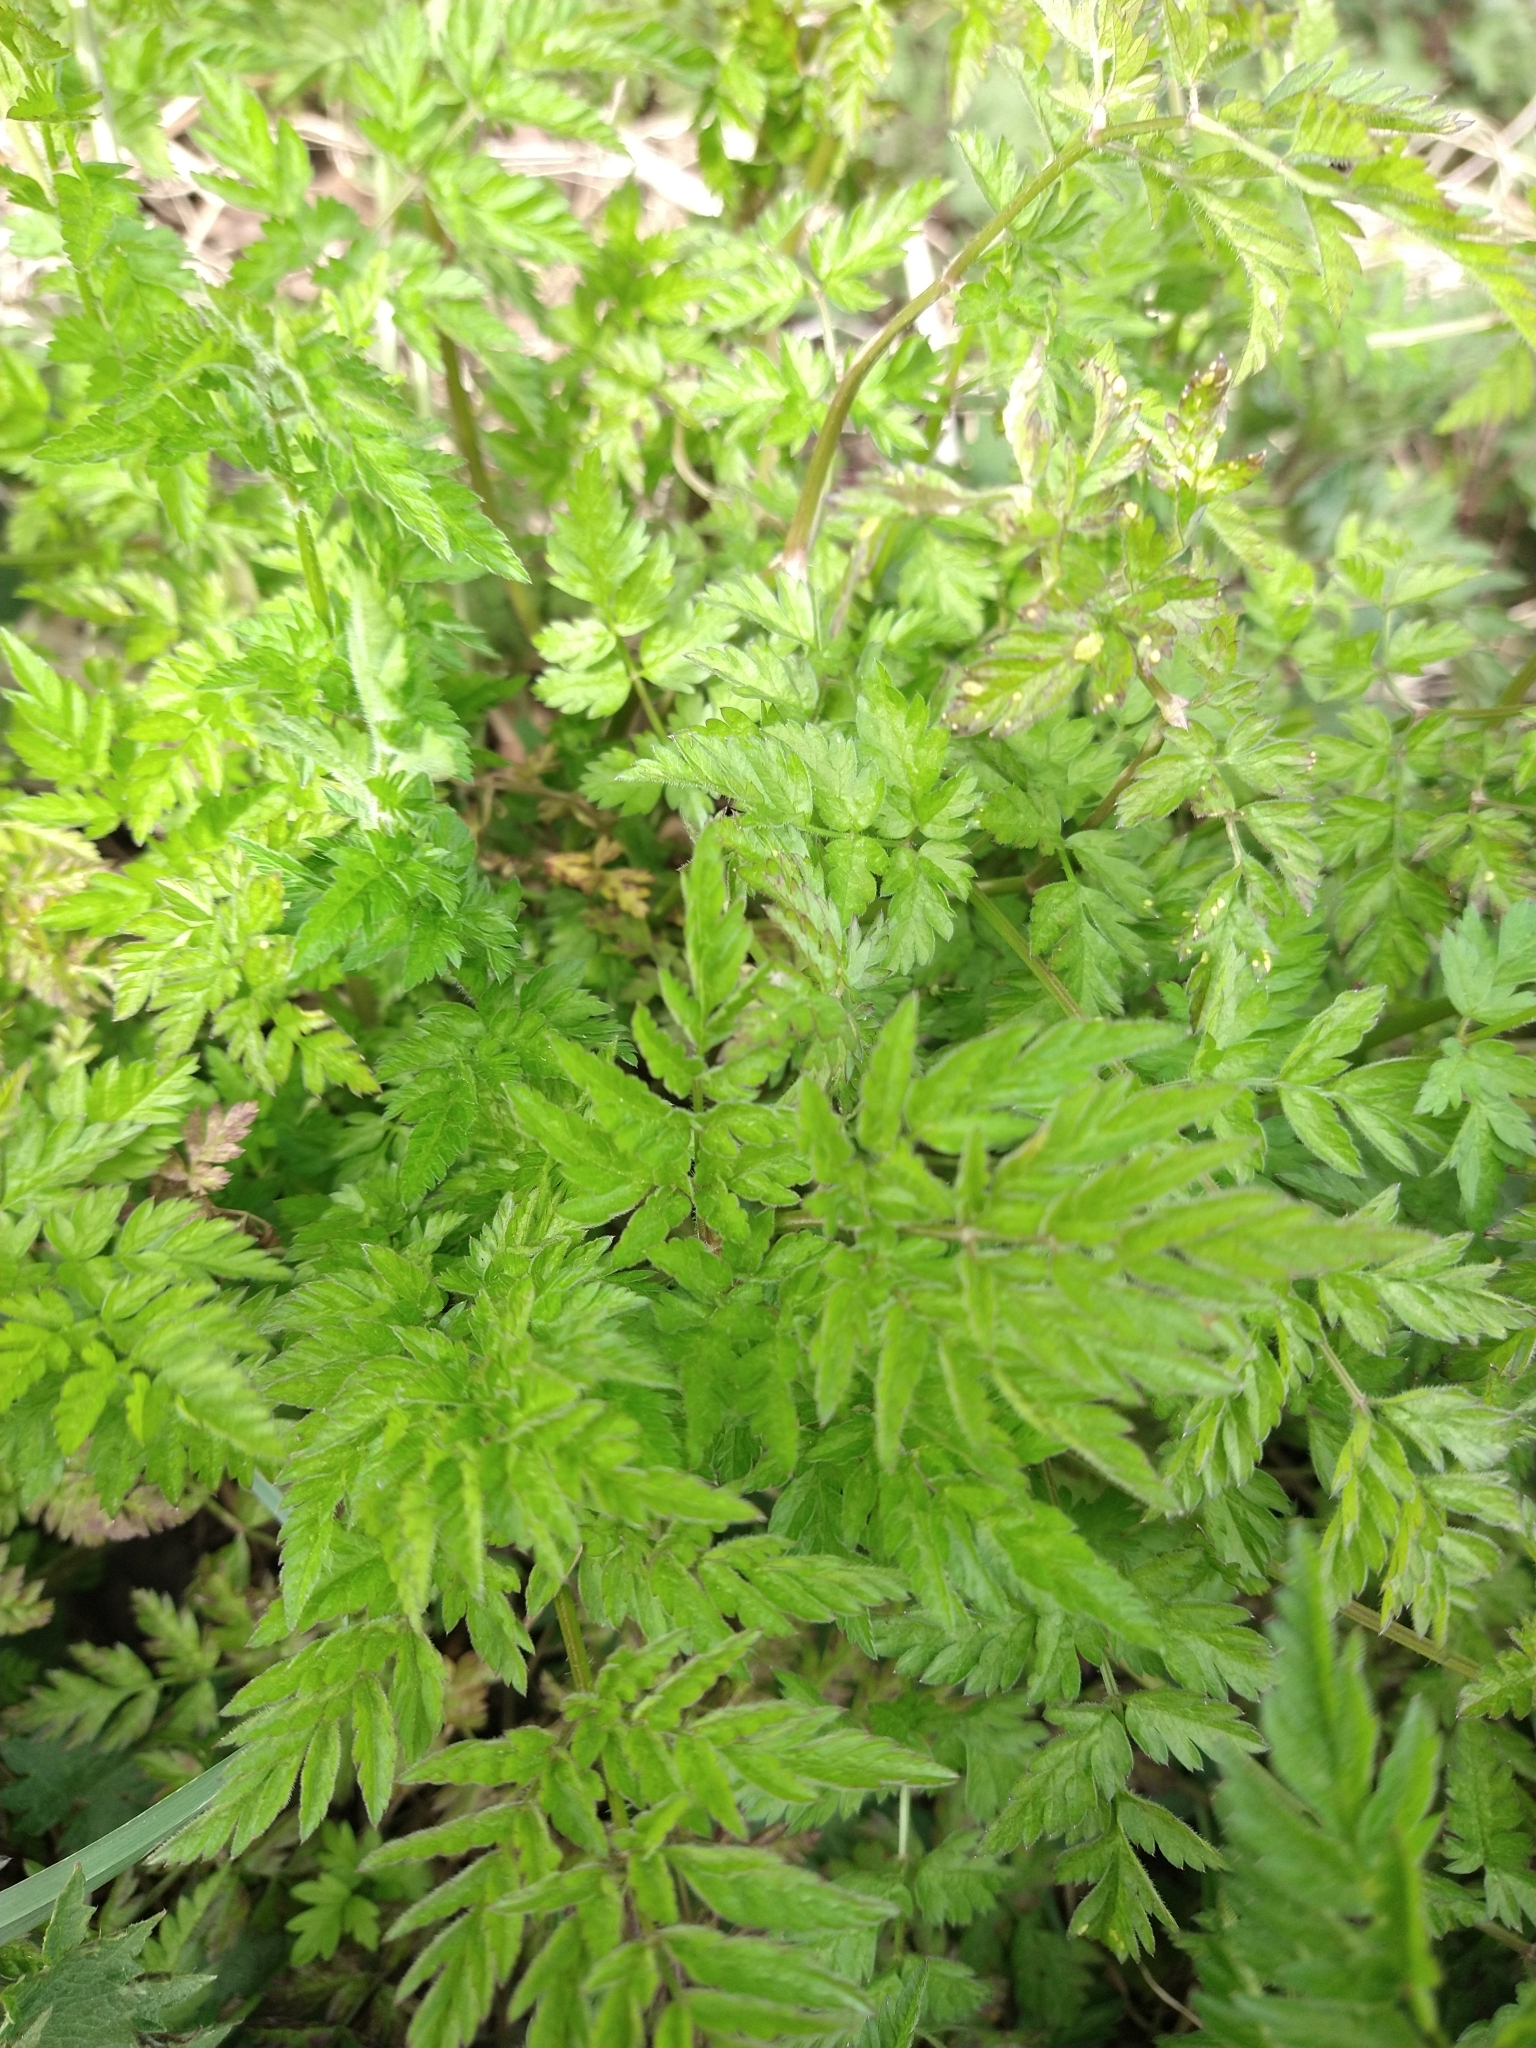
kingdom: Plantae
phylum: Tracheophyta
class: Magnoliopsida
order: Apiales
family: Apiaceae
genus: Anthriscus
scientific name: Anthriscus sylvestris
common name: Cow parsley
